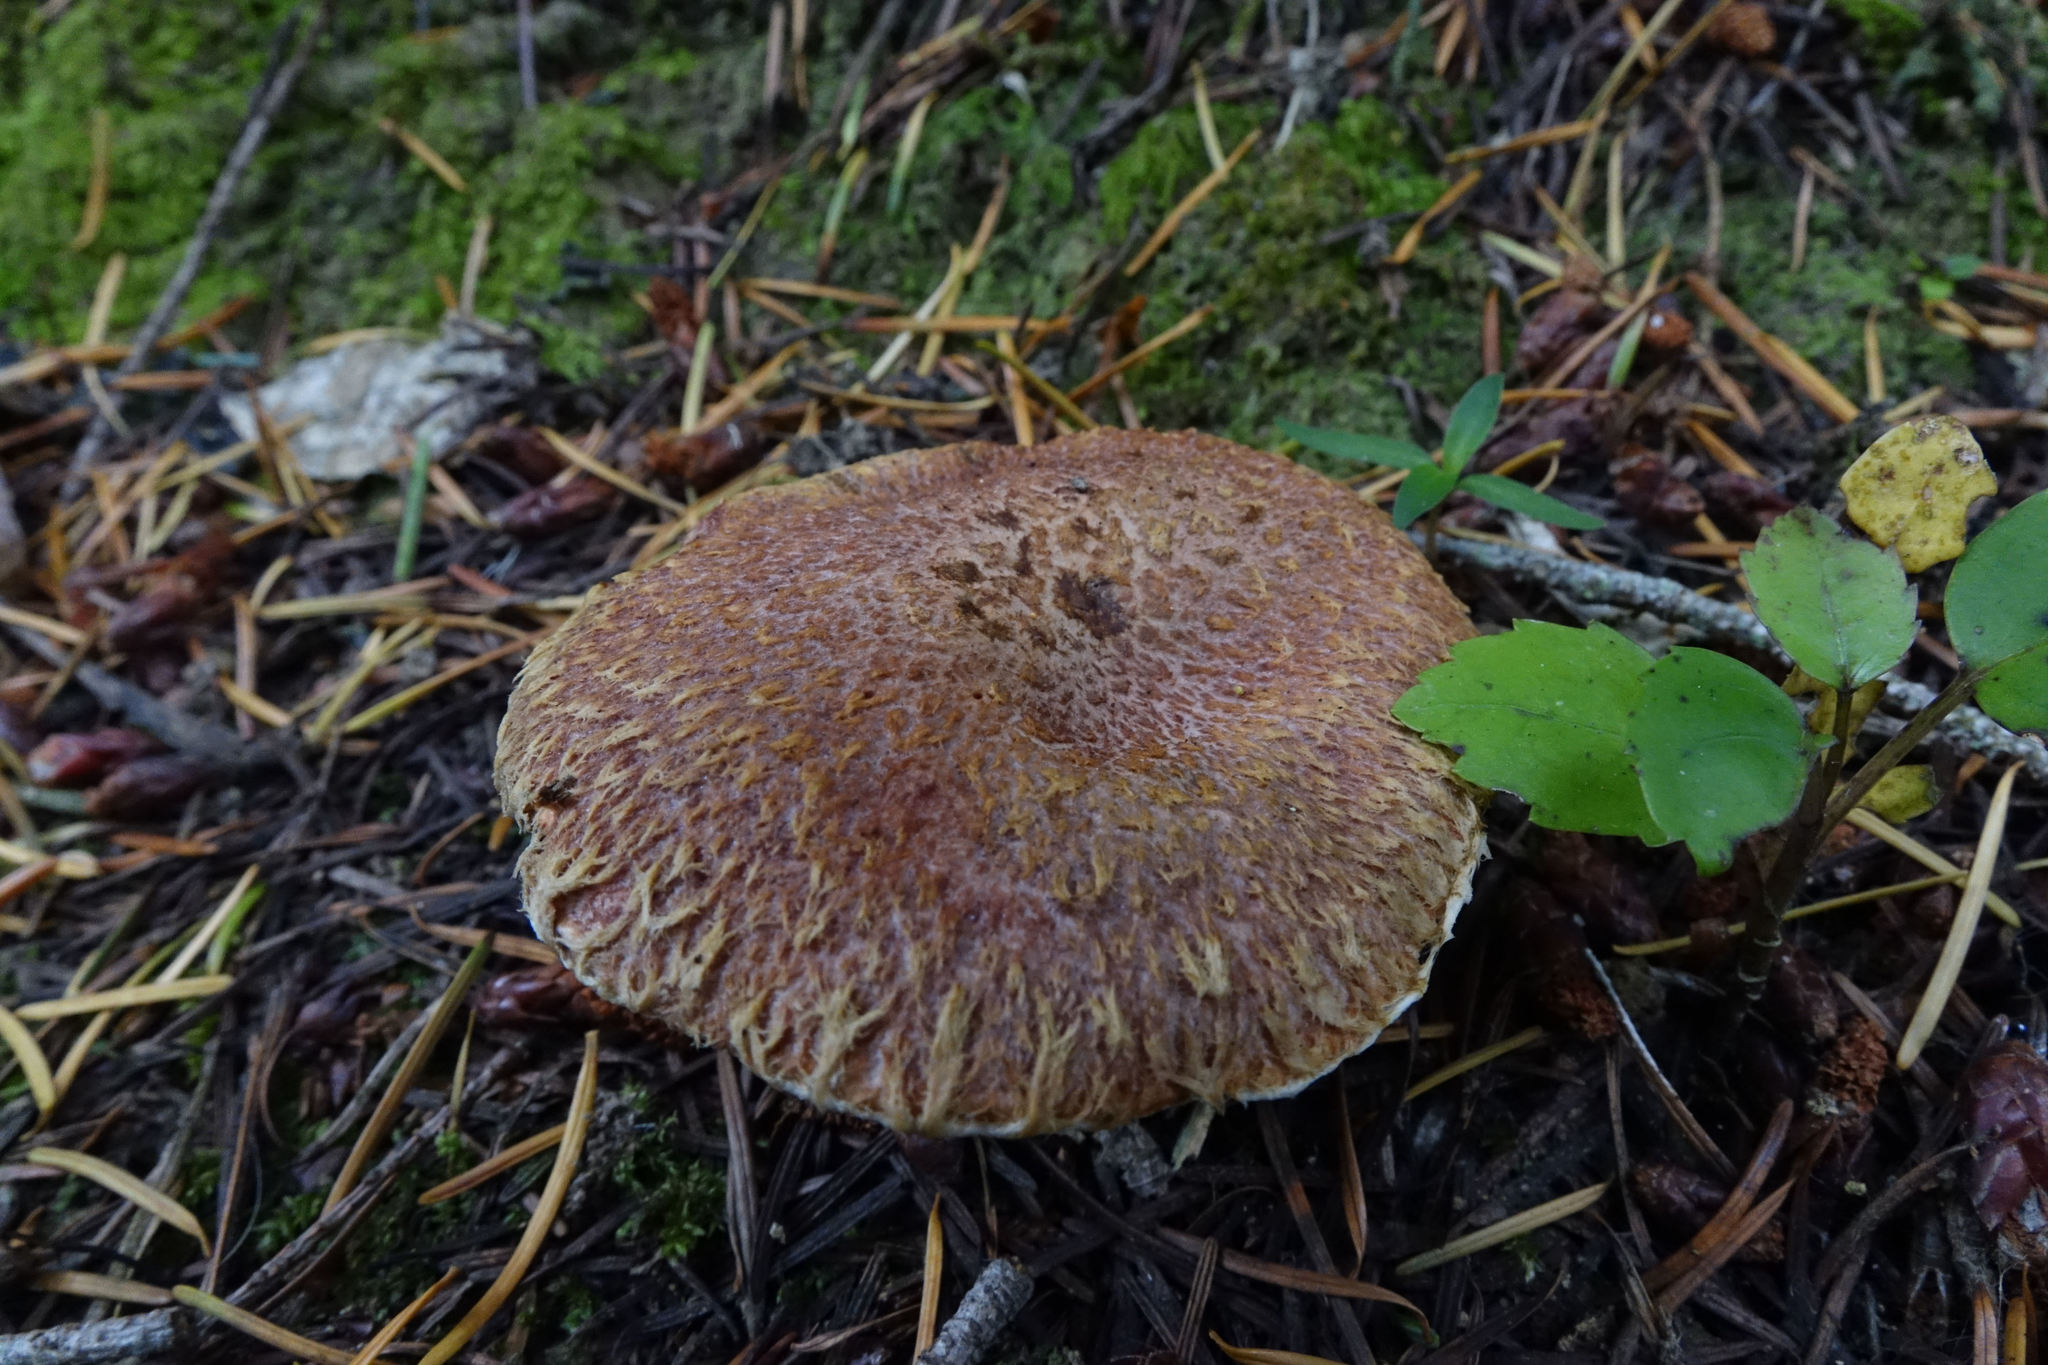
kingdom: Fungi
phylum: Basidiomycota
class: Agaricomycetes
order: Boletales
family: Suillaceae
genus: Suillus
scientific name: Suillus lakei
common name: Western painted suillus
